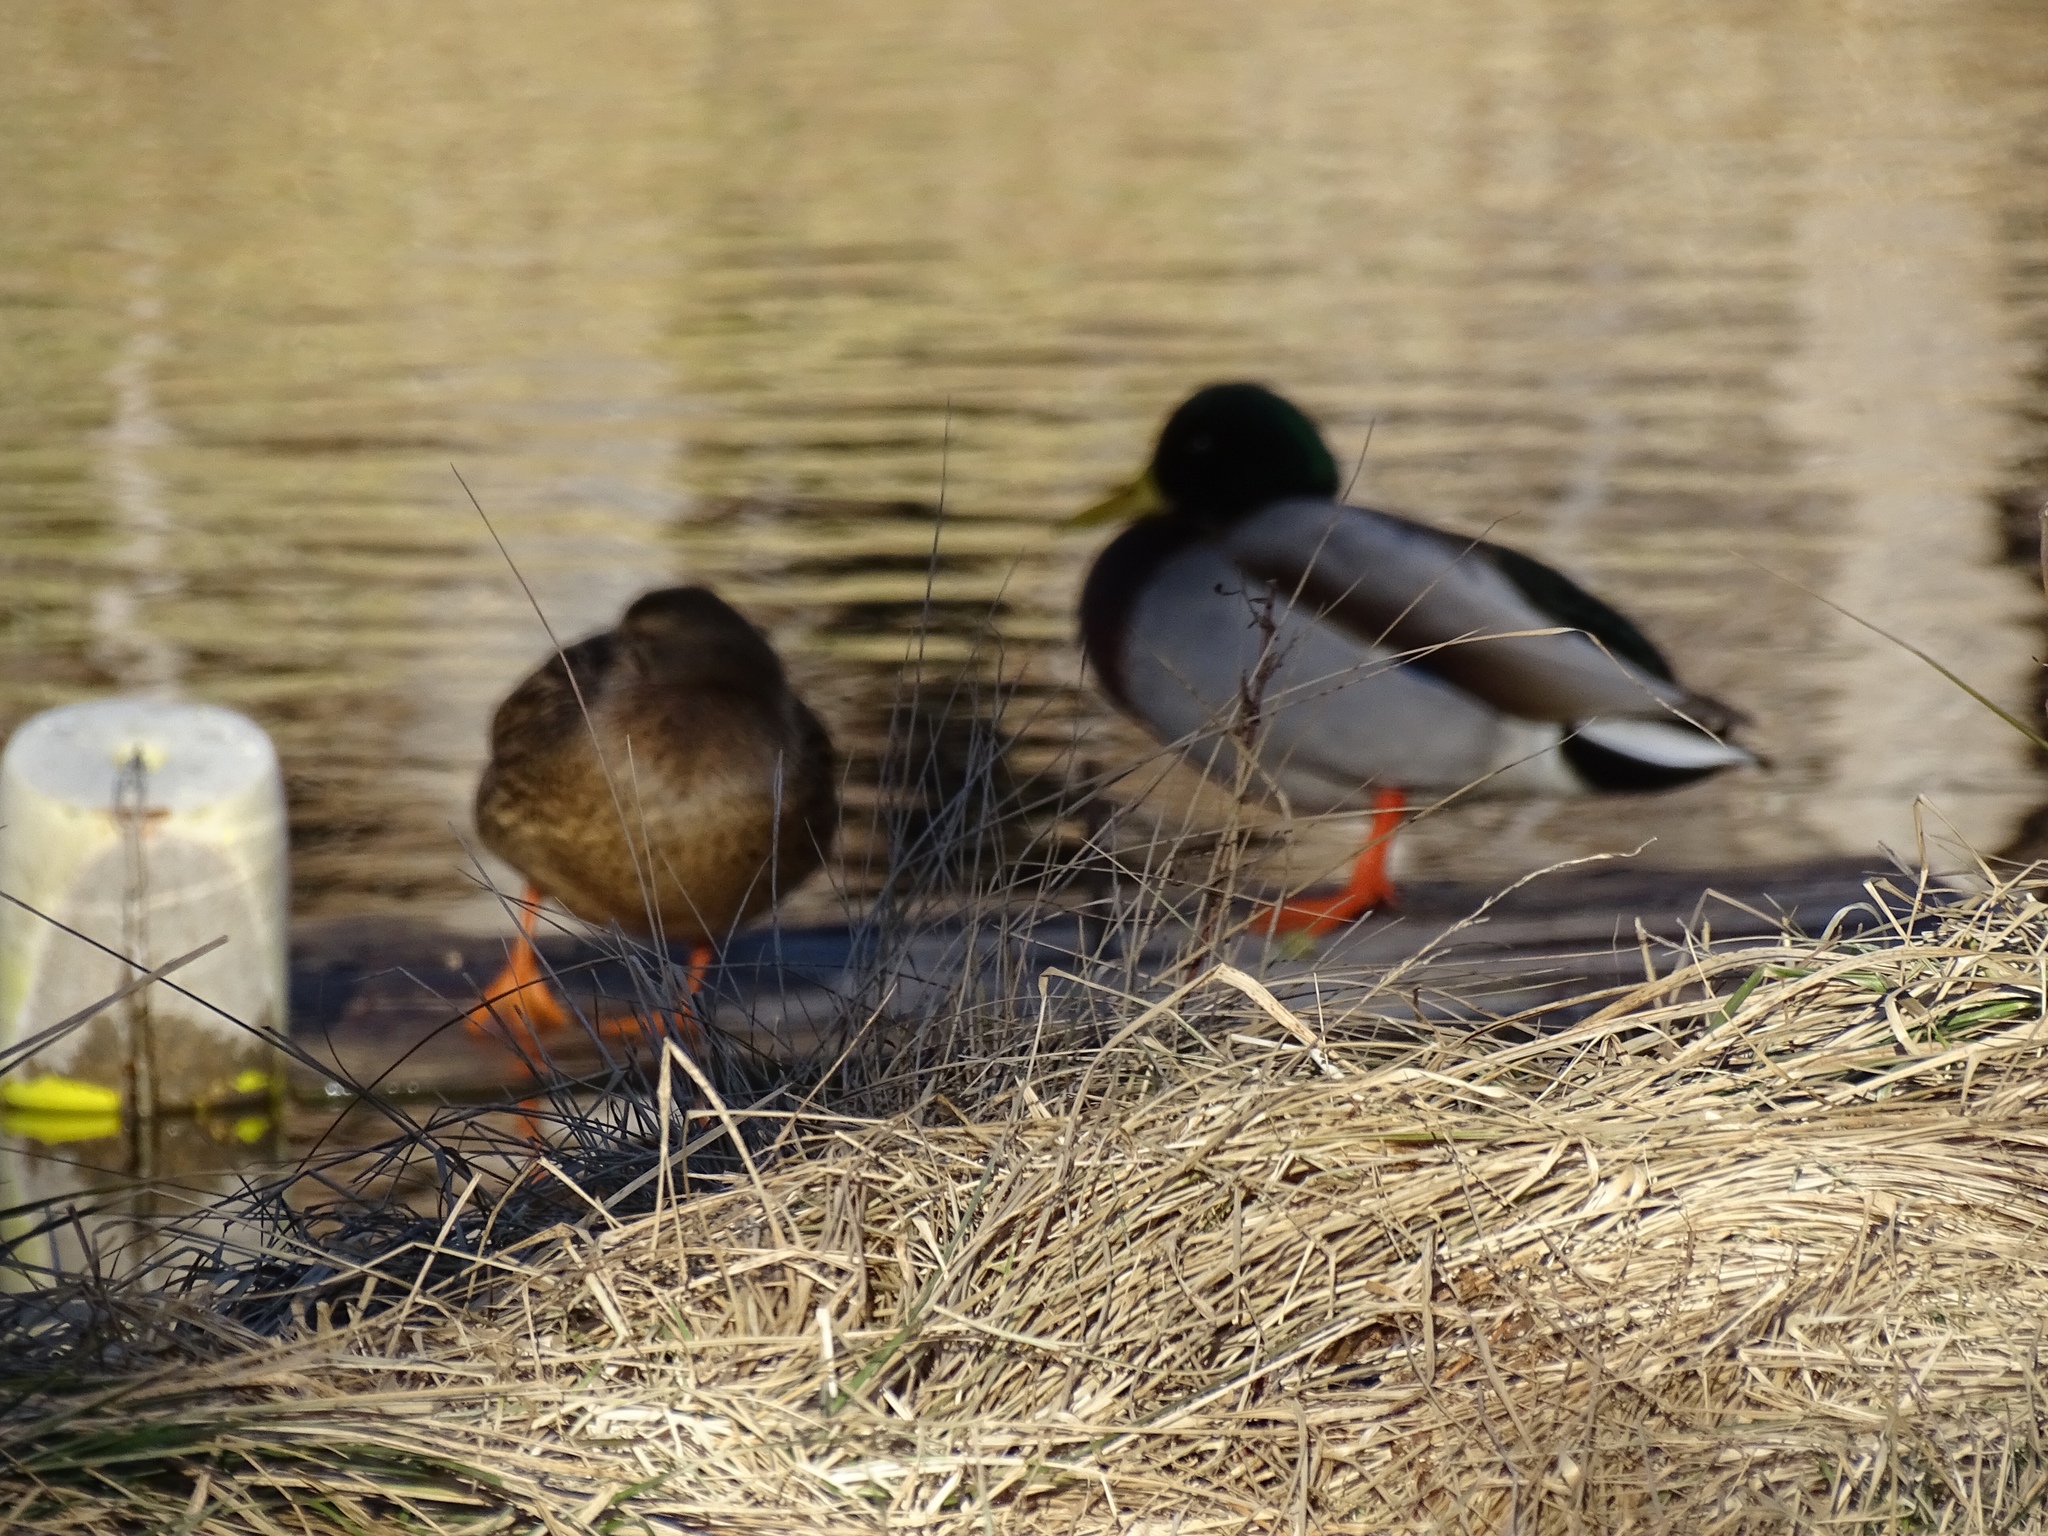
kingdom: Animalia
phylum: Chordata
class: Aves
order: Anseriformes
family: Anatidae
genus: Anas
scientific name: Anas platyrhynchos
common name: Mallard
